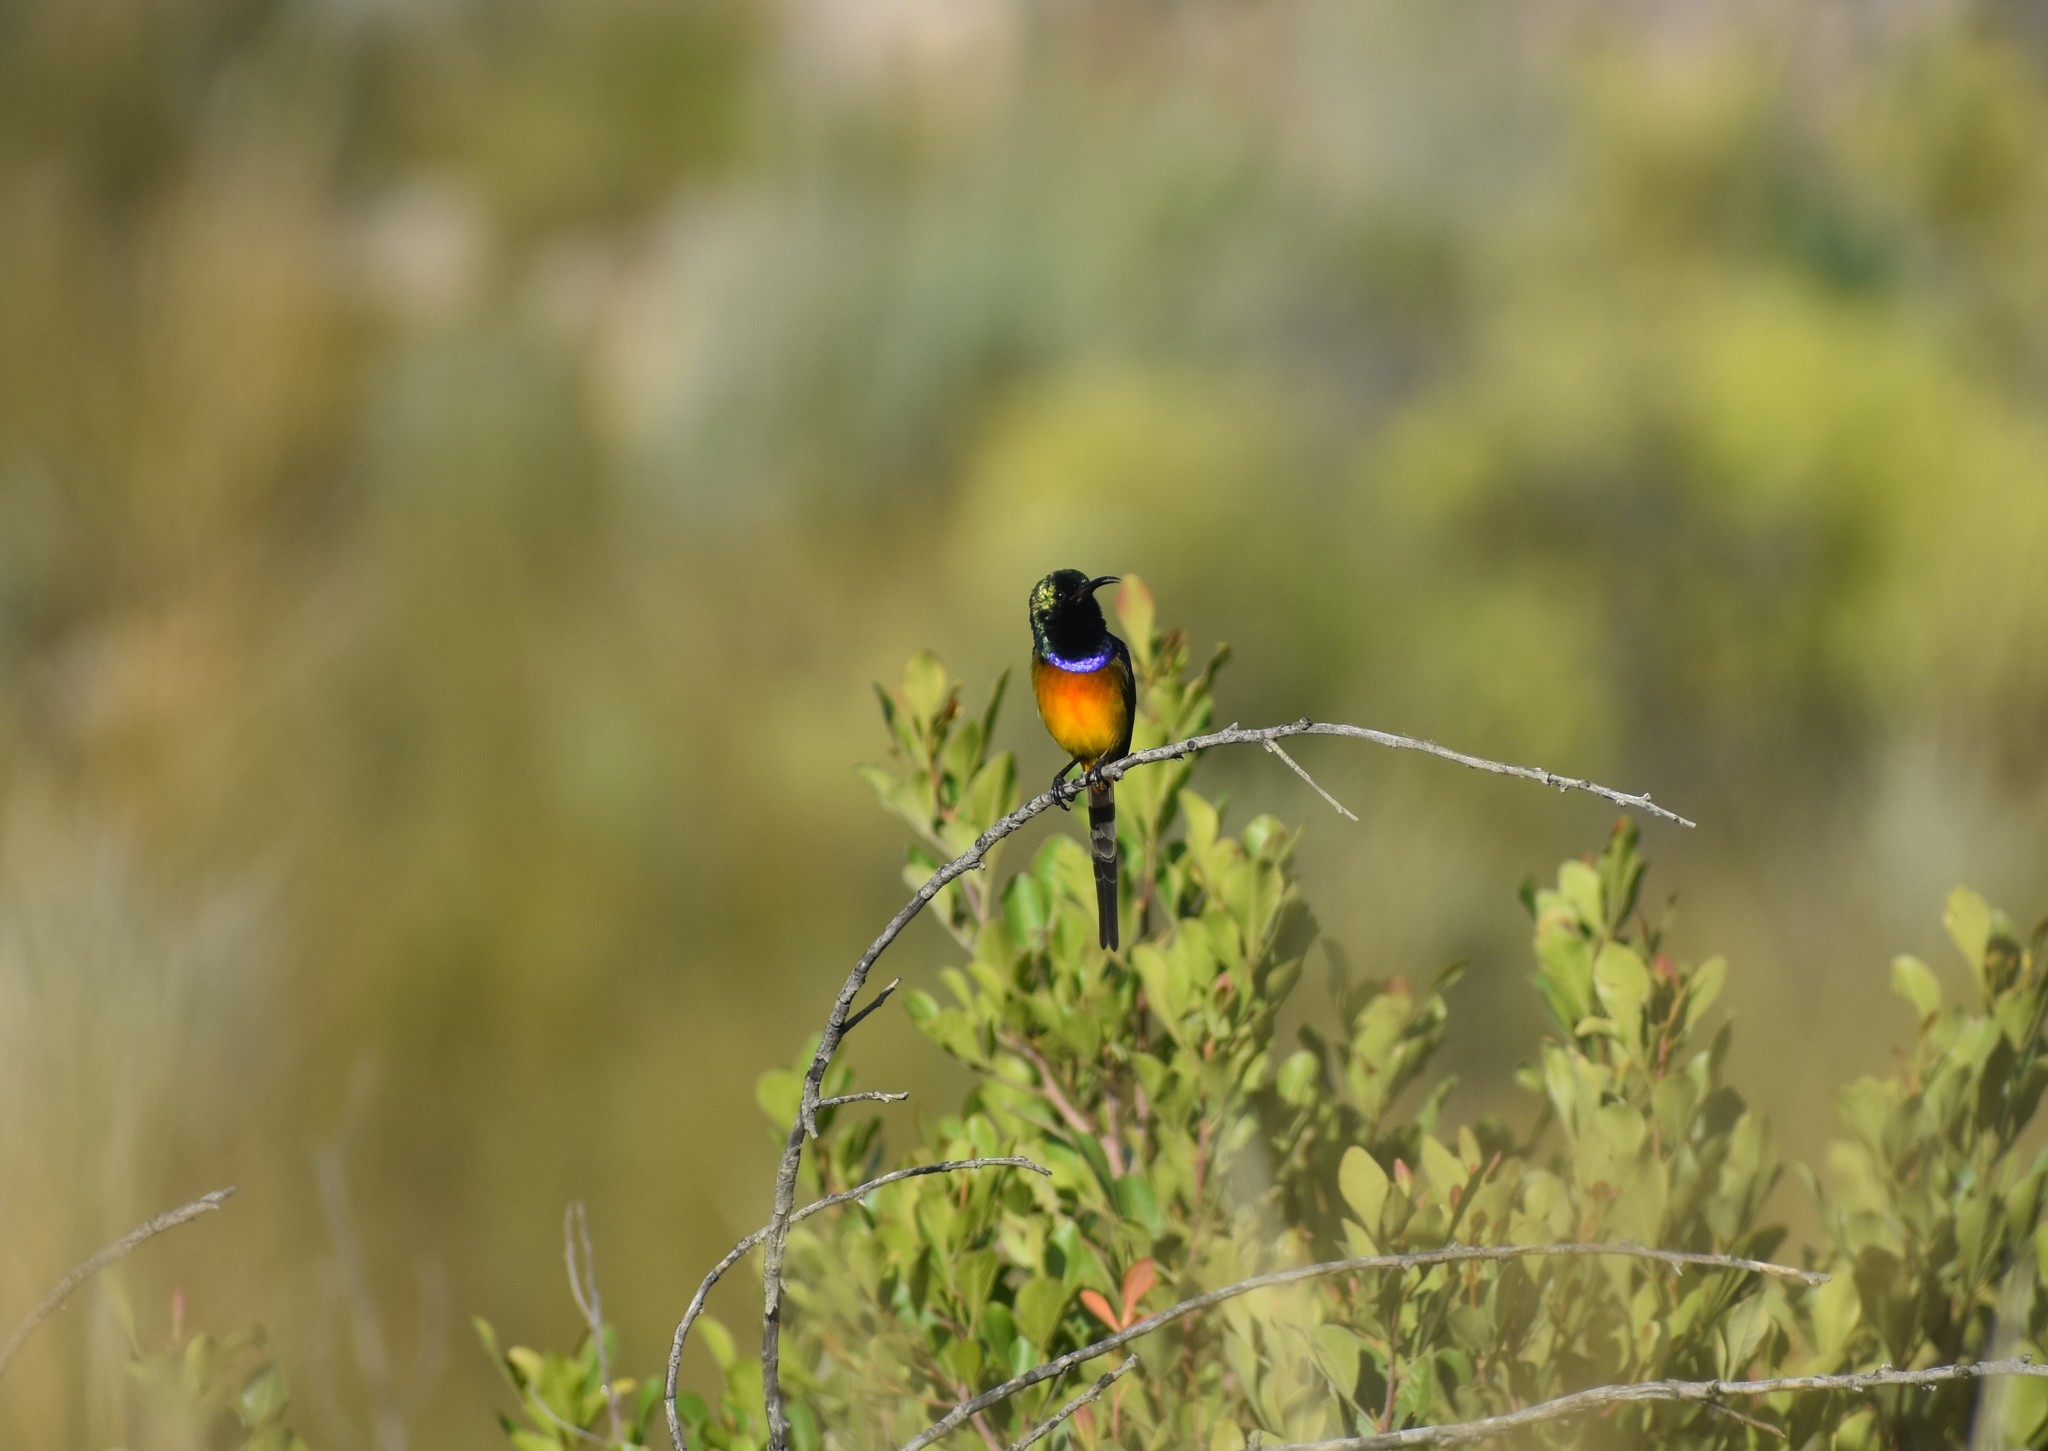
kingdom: Animalia
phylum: Chordata
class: Aves
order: Passeriformes
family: Nectariniidae
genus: Anthobaphes
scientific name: Anthobaphes violacea
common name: Orange-breasted sunbird
